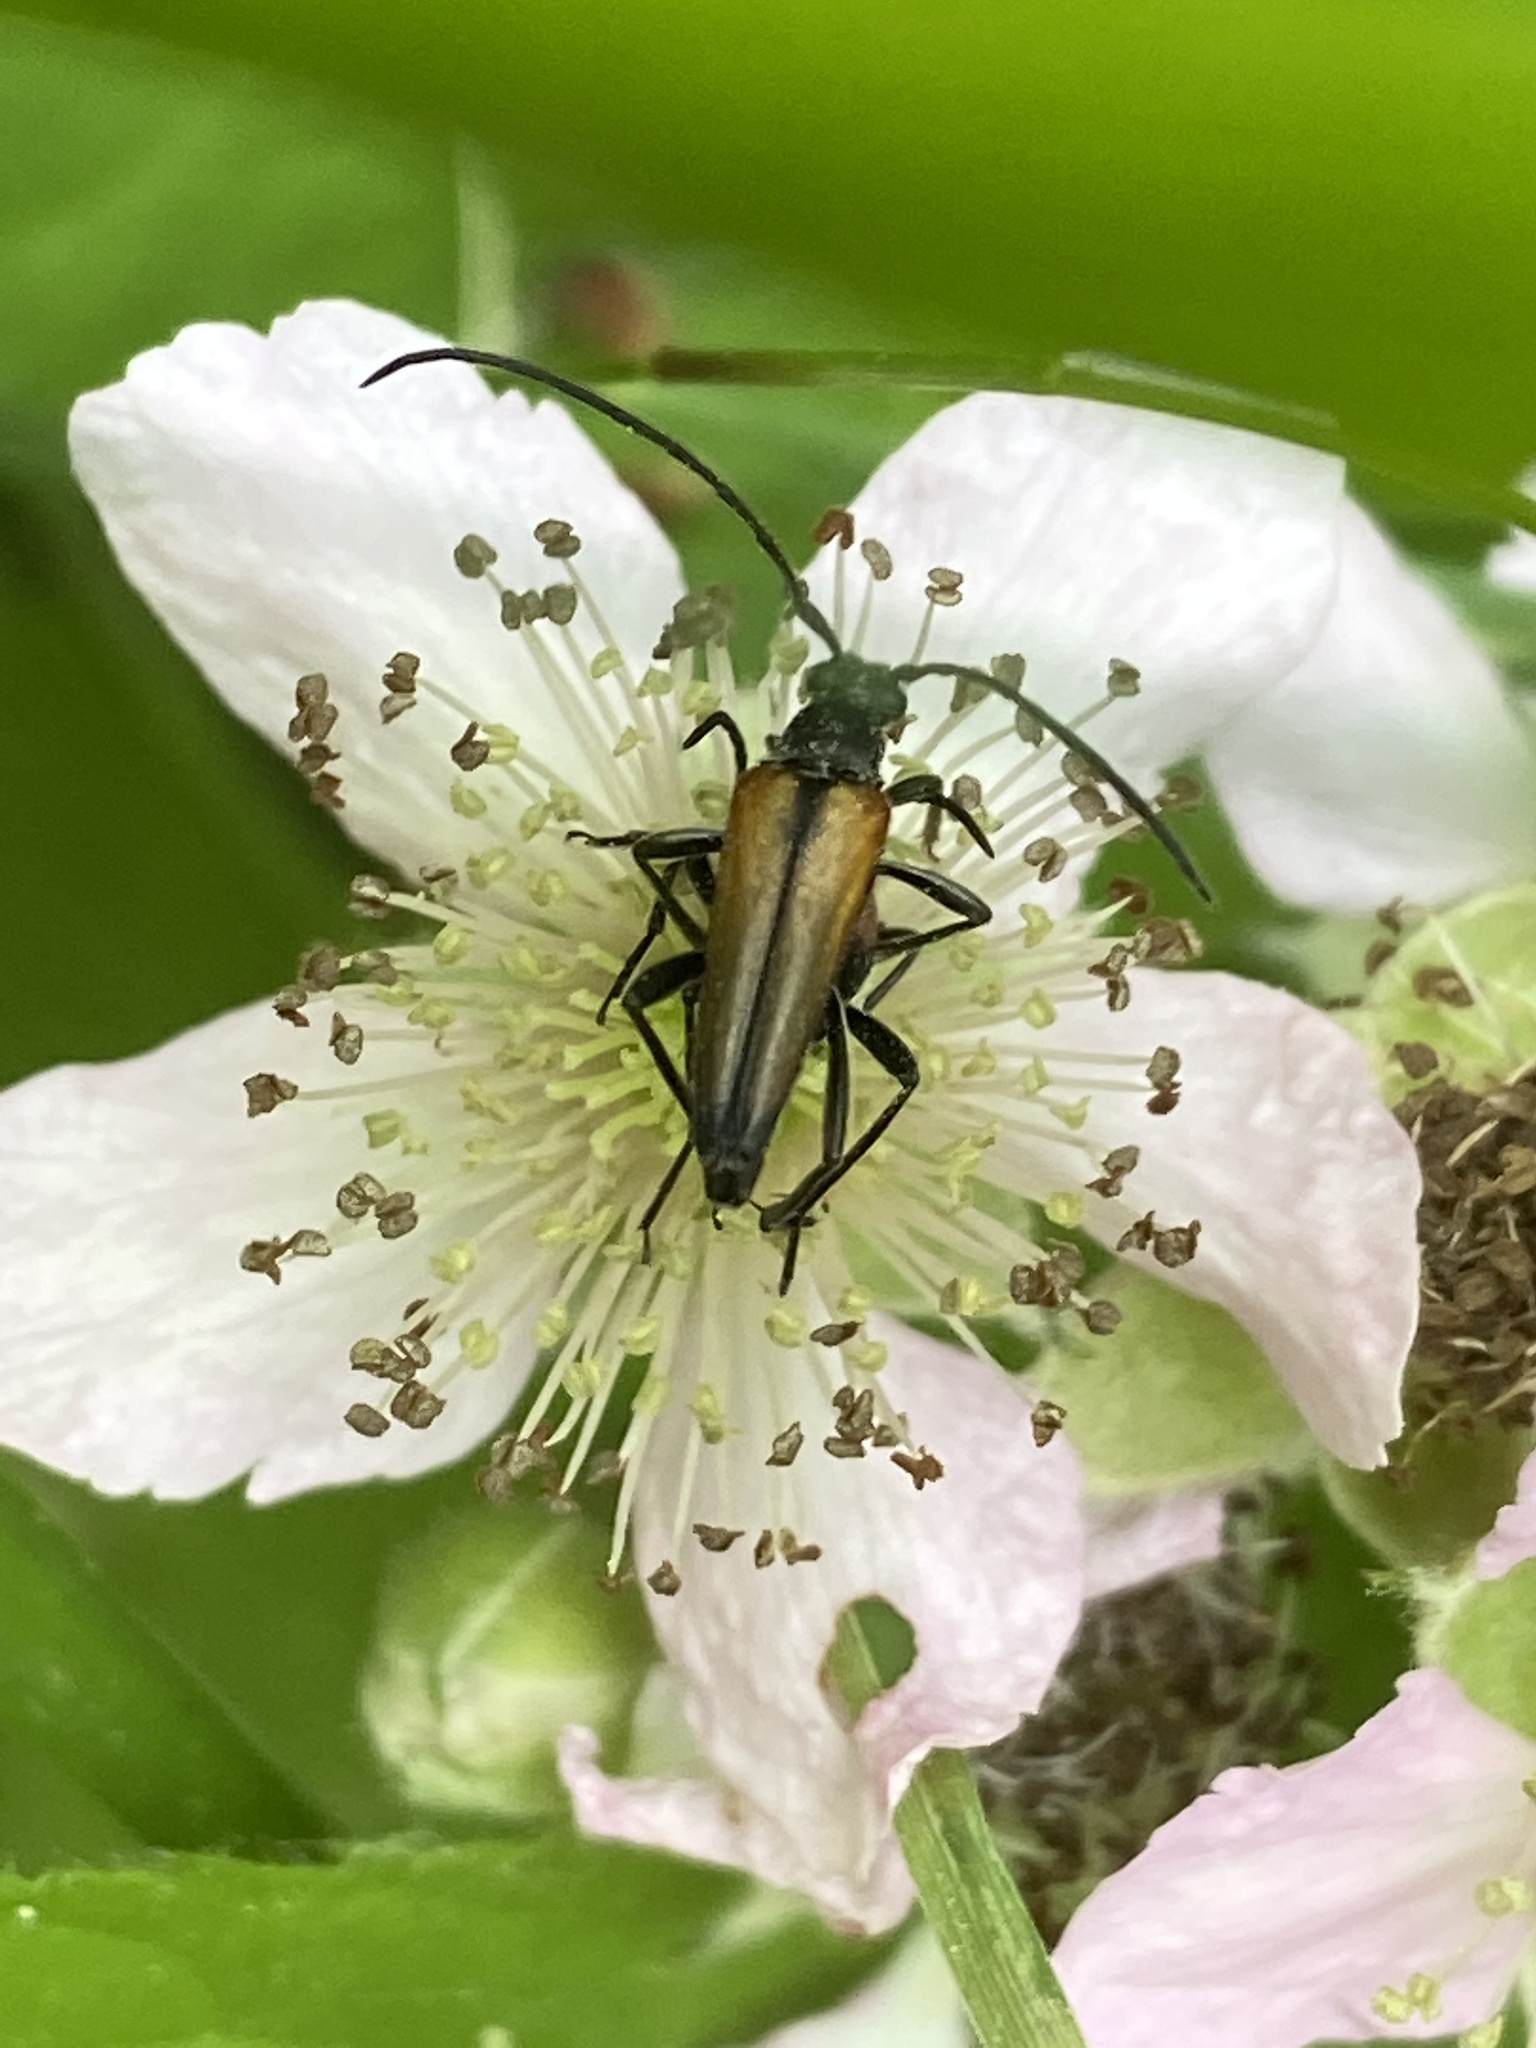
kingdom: Animalia
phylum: Arthropoda
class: Insecta
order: Coleoptera
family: Cerambycidae
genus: Stenurella
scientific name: Stenurella melanura
